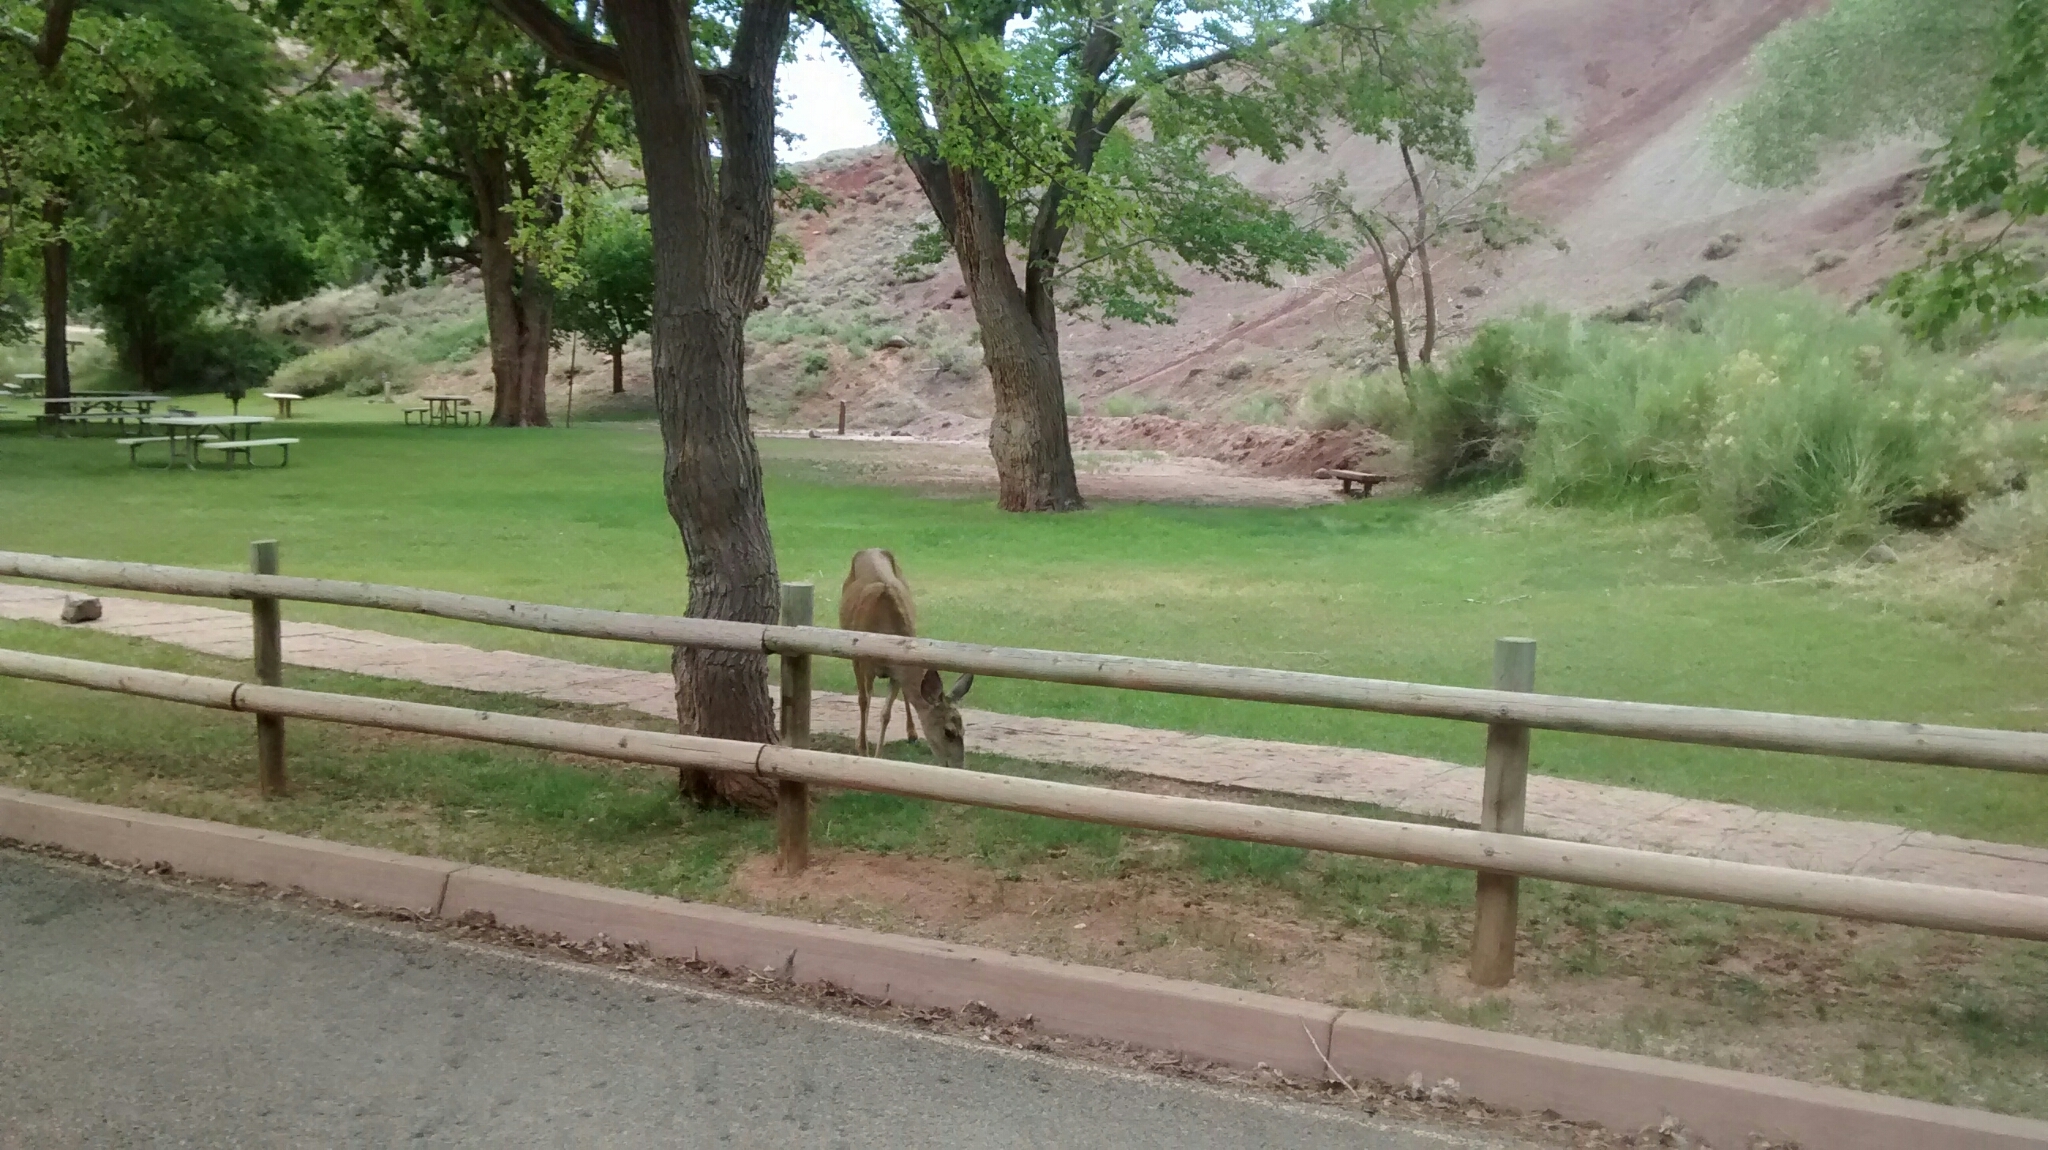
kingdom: Animalia
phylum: Chordata
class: Mammalia
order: Artiodactyla
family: Cervidae
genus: Odocoileus
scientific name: Odocoileus hemionus
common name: Mule deer
